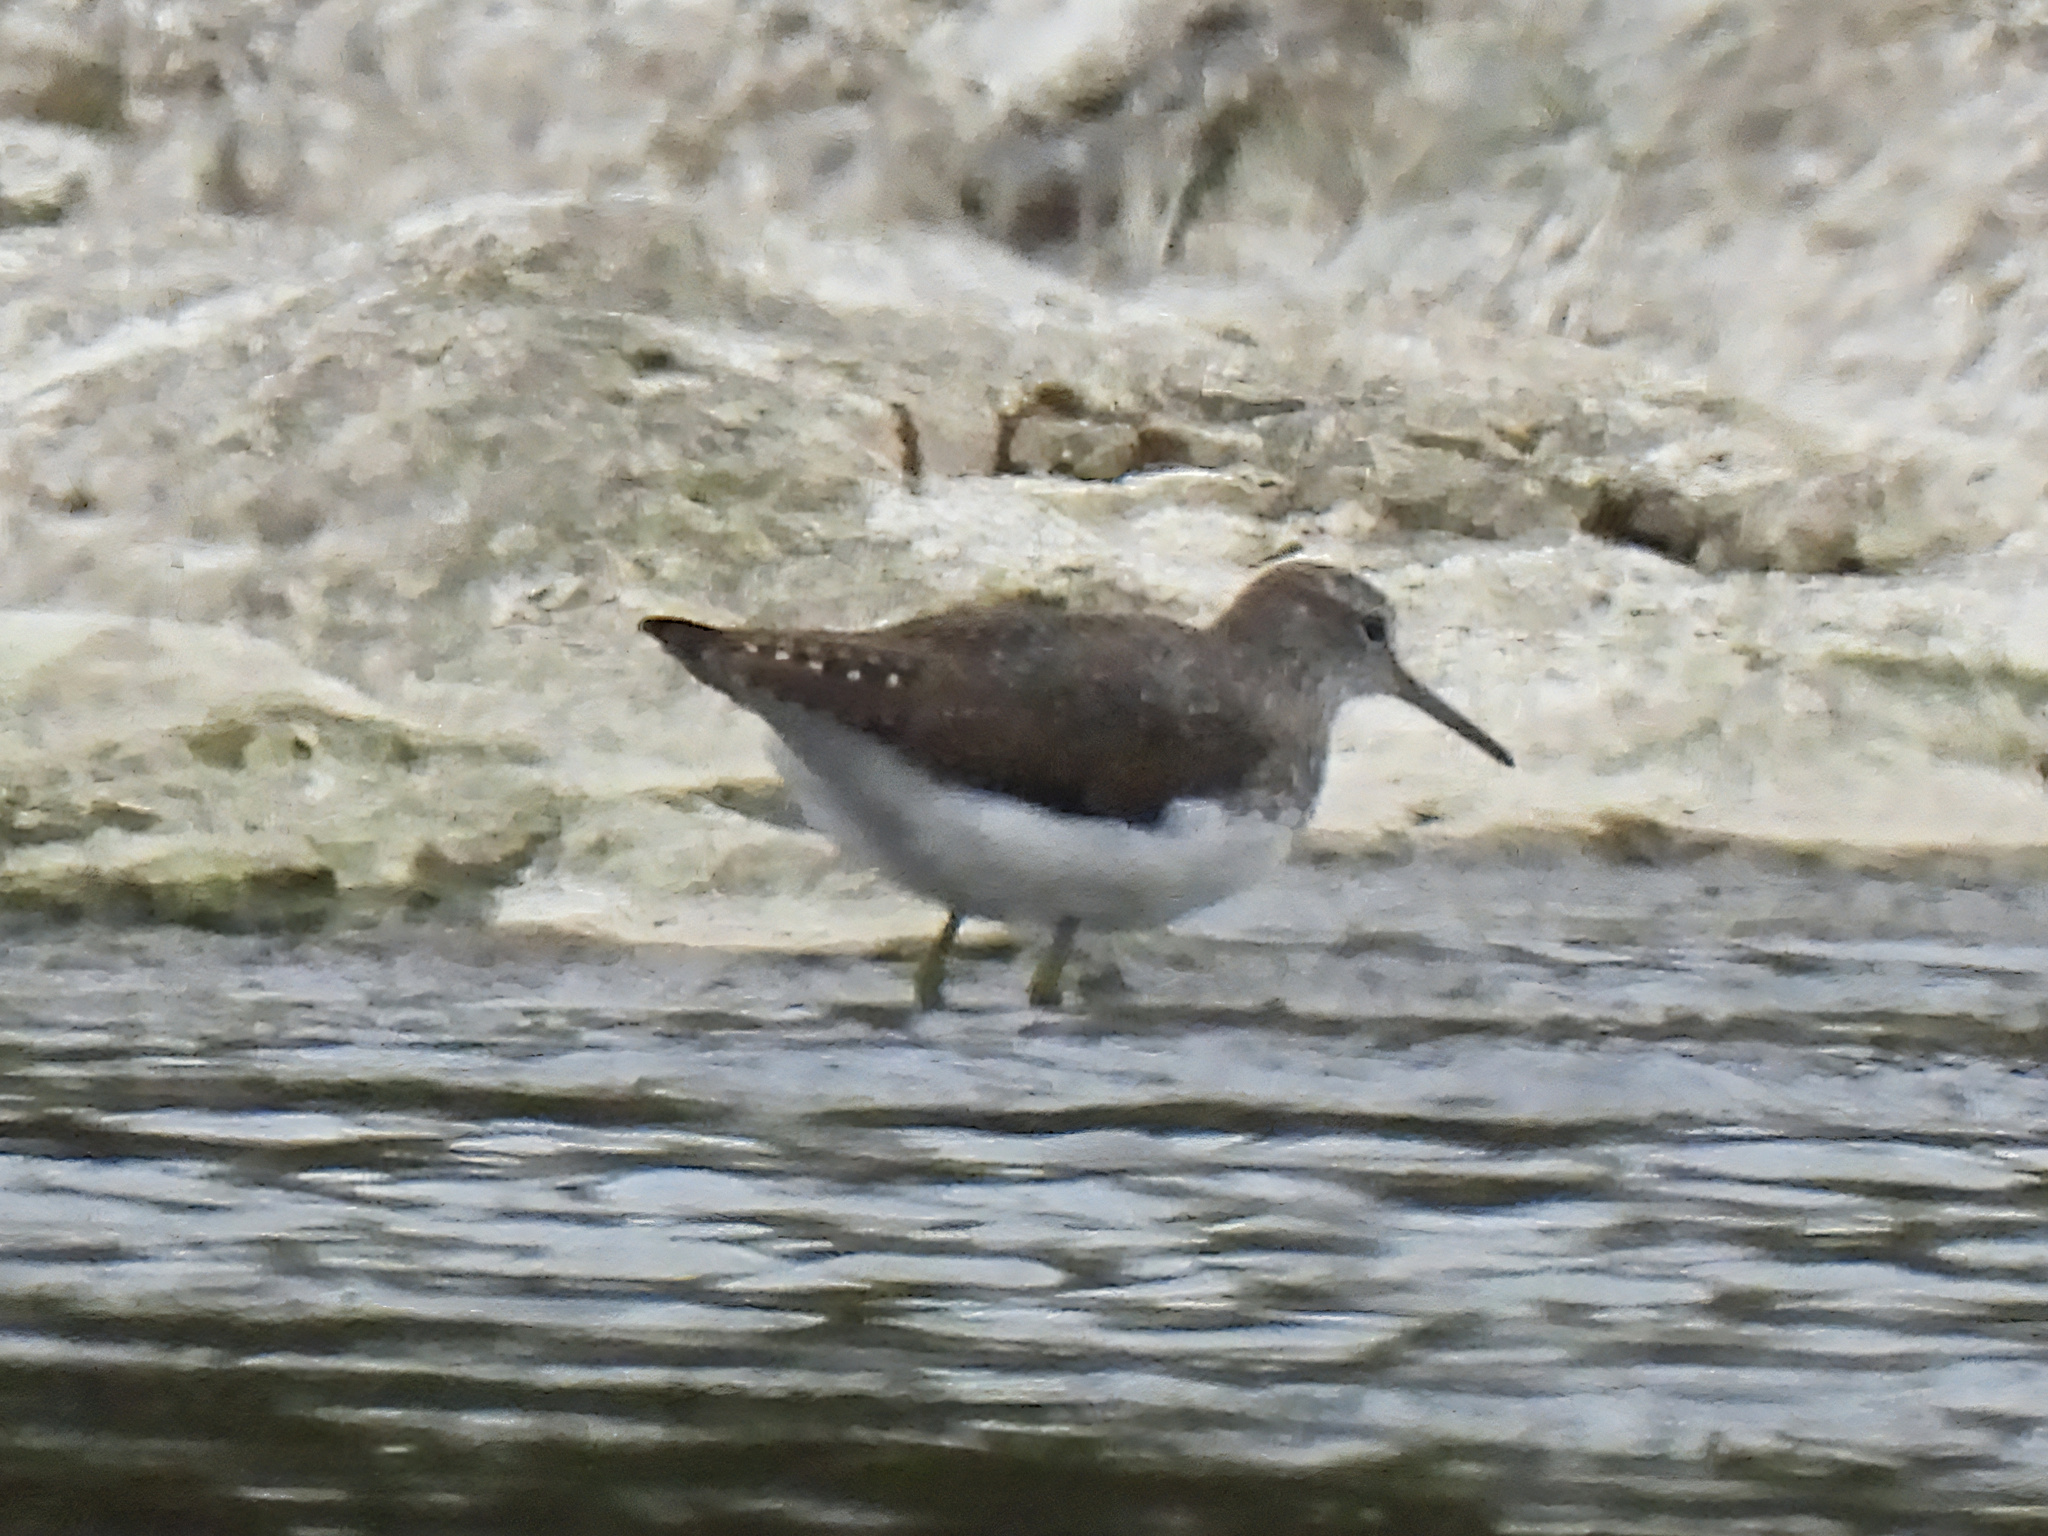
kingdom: Animalia
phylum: Chordata
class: Aves
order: Charadriiformes
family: Scolopacidae
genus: Tringa
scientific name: Tringa ochropus
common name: Green sandpiper
